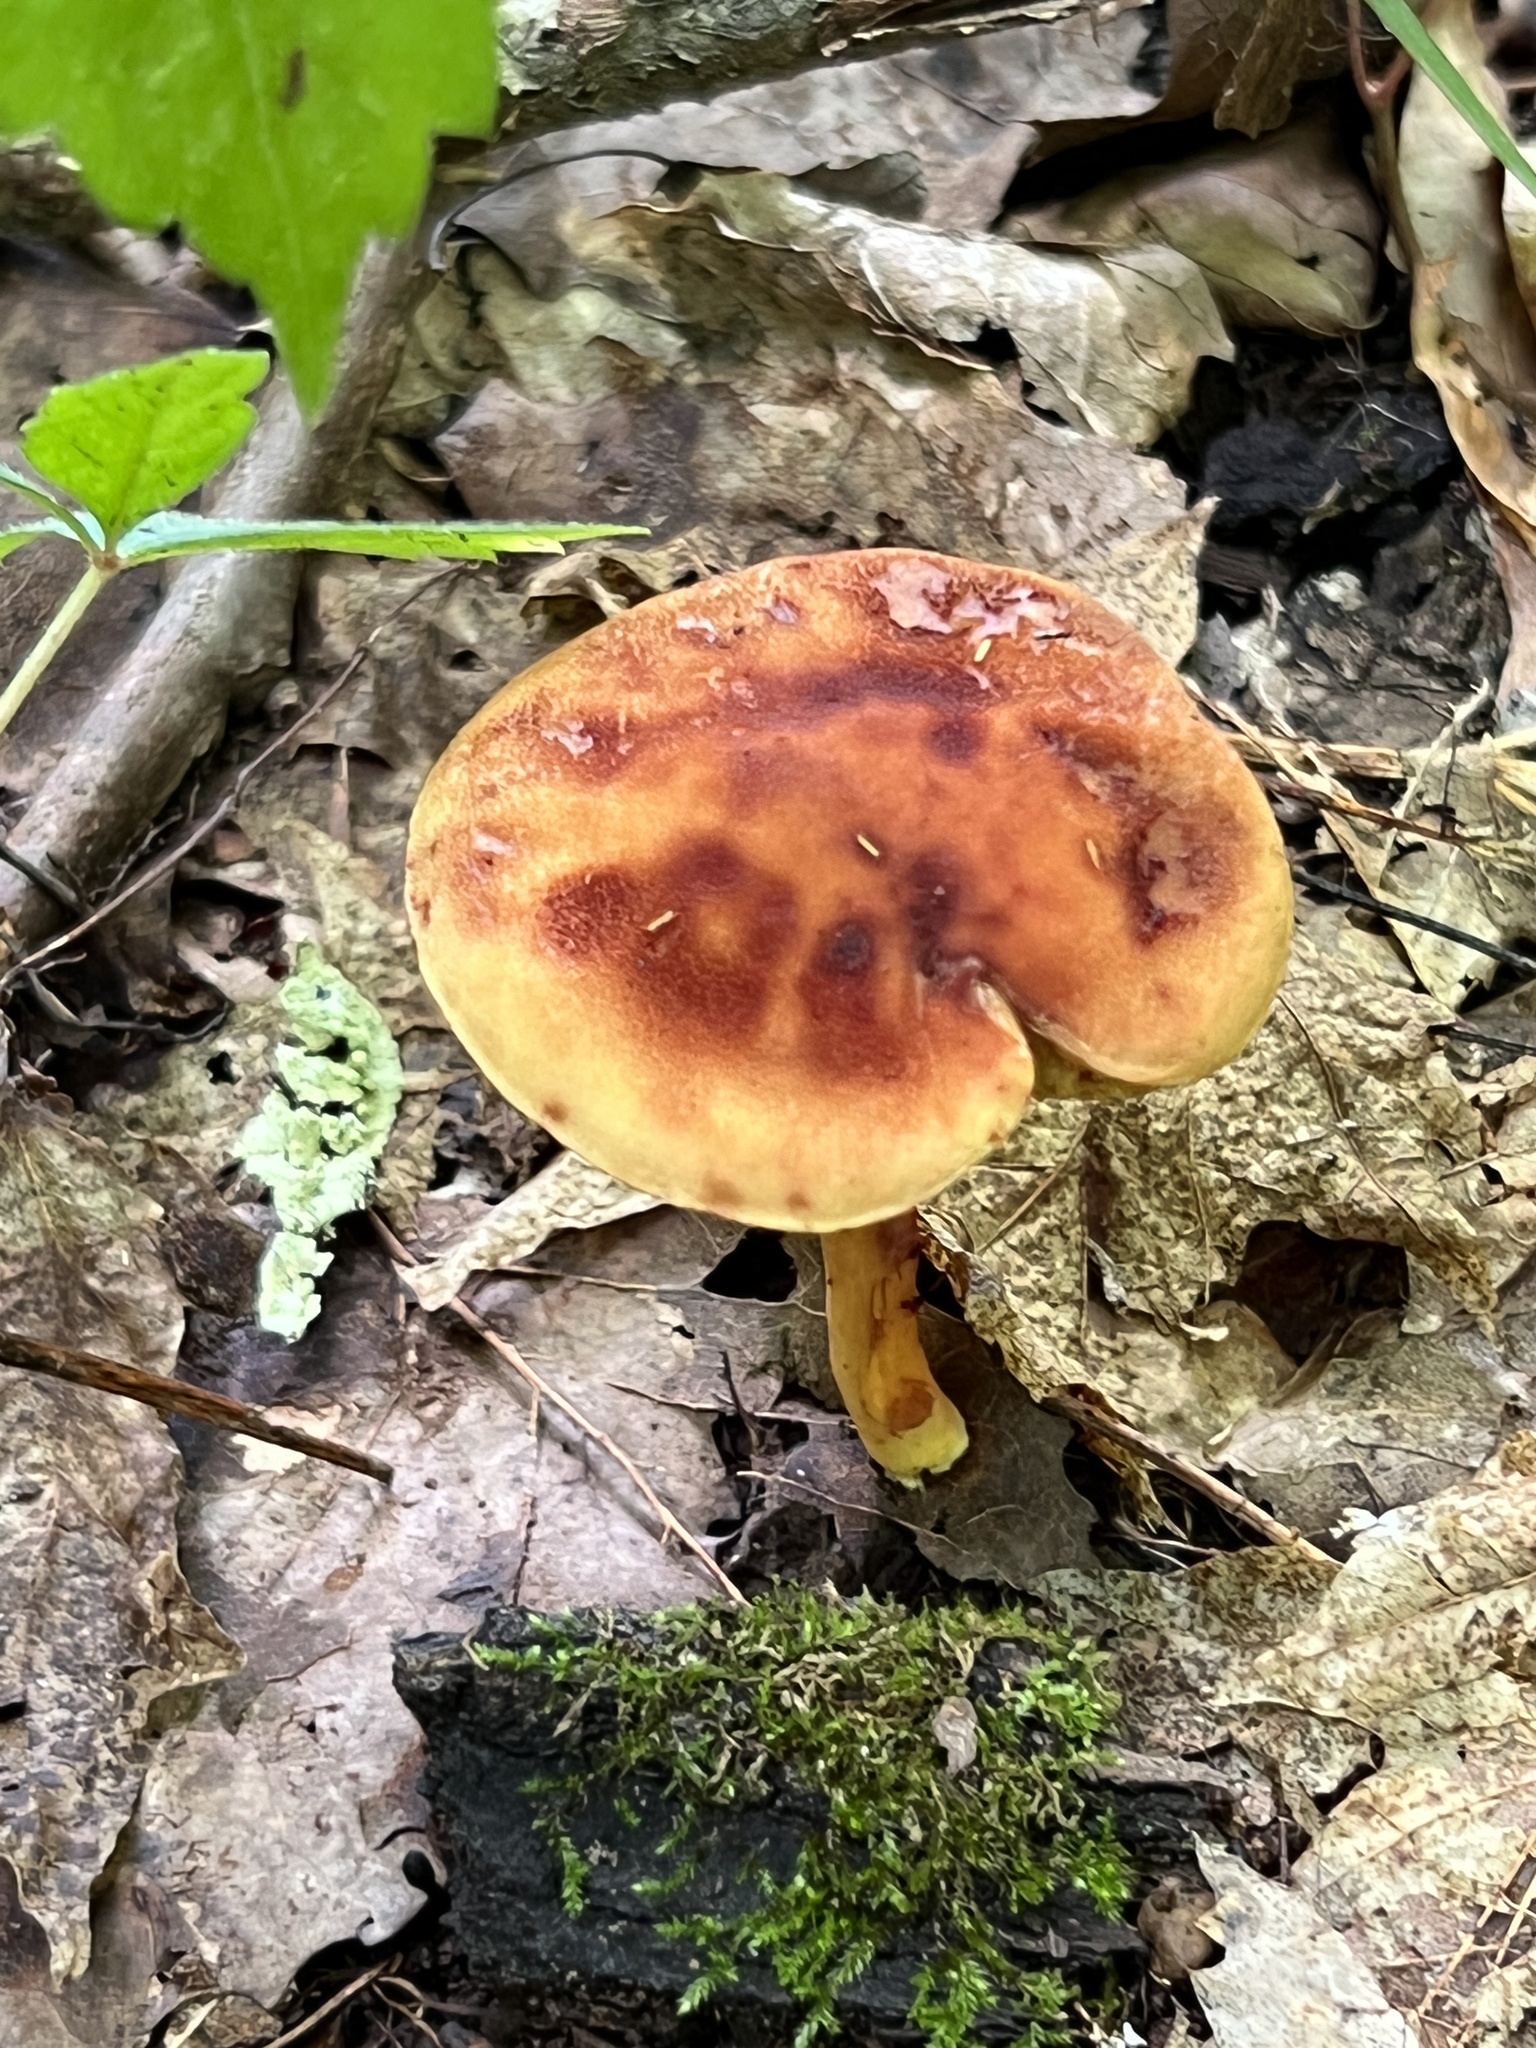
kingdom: Fungi
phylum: Basidiomycota
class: Agaricomycetes
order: Boletales
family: Boletaceae
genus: Xerocomus
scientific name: Xerocomus illudens
